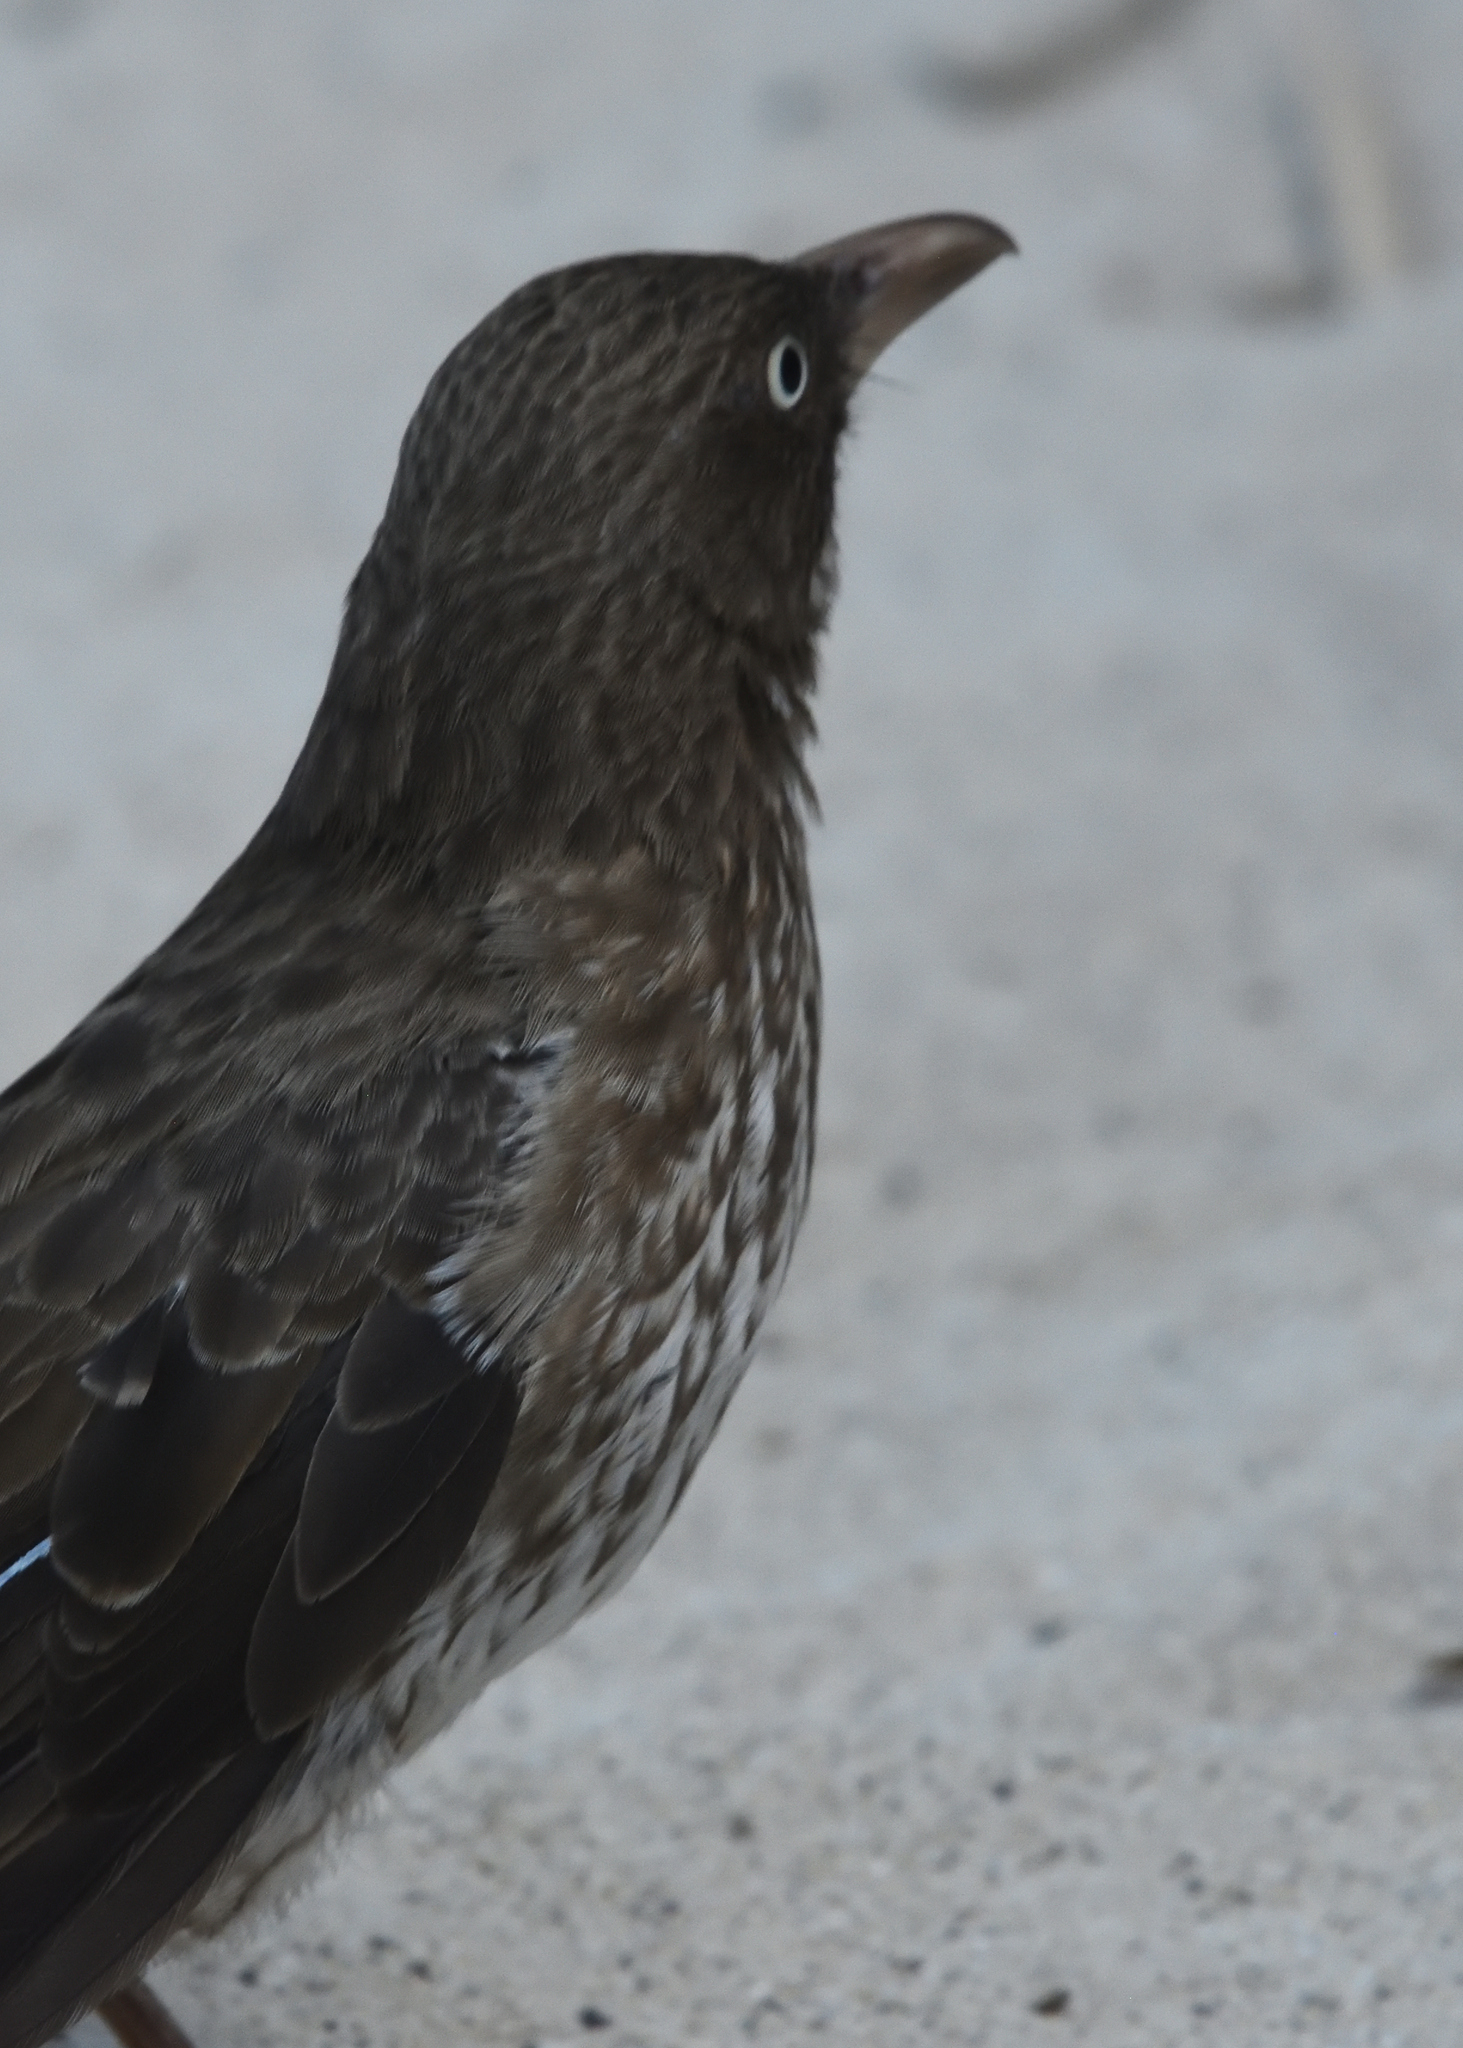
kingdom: Animalia
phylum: Chordata
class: Aves
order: Passeriformes
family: Mimidae
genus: Margarops
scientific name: Margarops fuscatus
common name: Pearly-eyed thrasher
